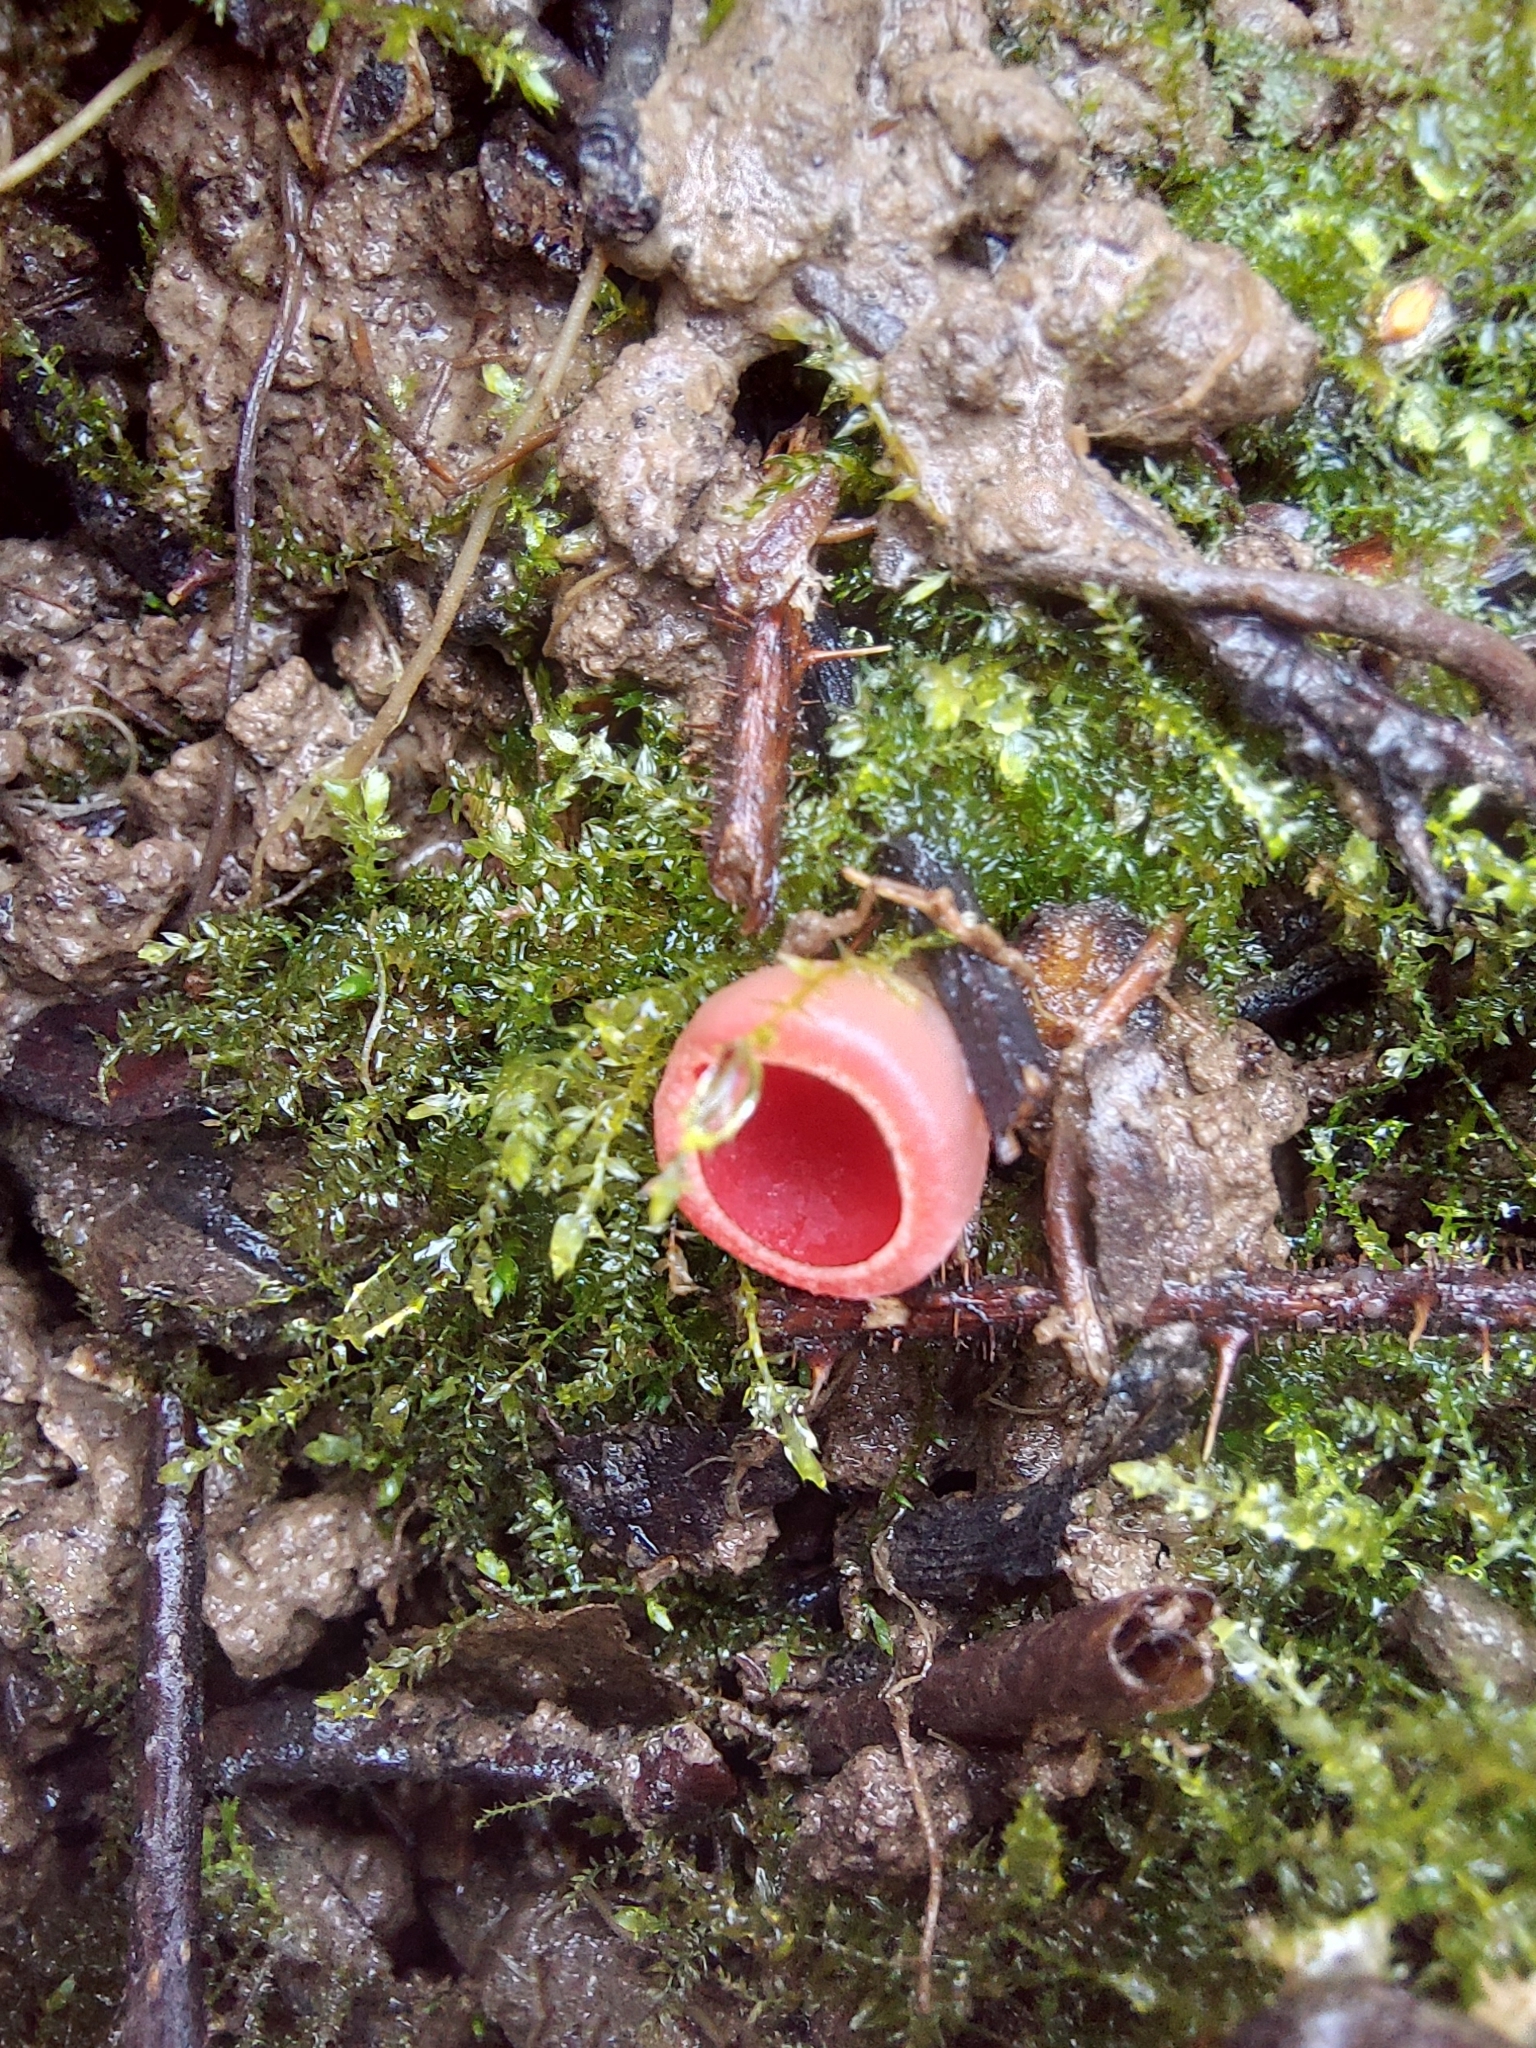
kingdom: Fungi
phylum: Ascomycota
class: Pezizomycetes
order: Pezizales
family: Sarcoscyphaceae
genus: Sarcoscypha
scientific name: Sarcoscypha
